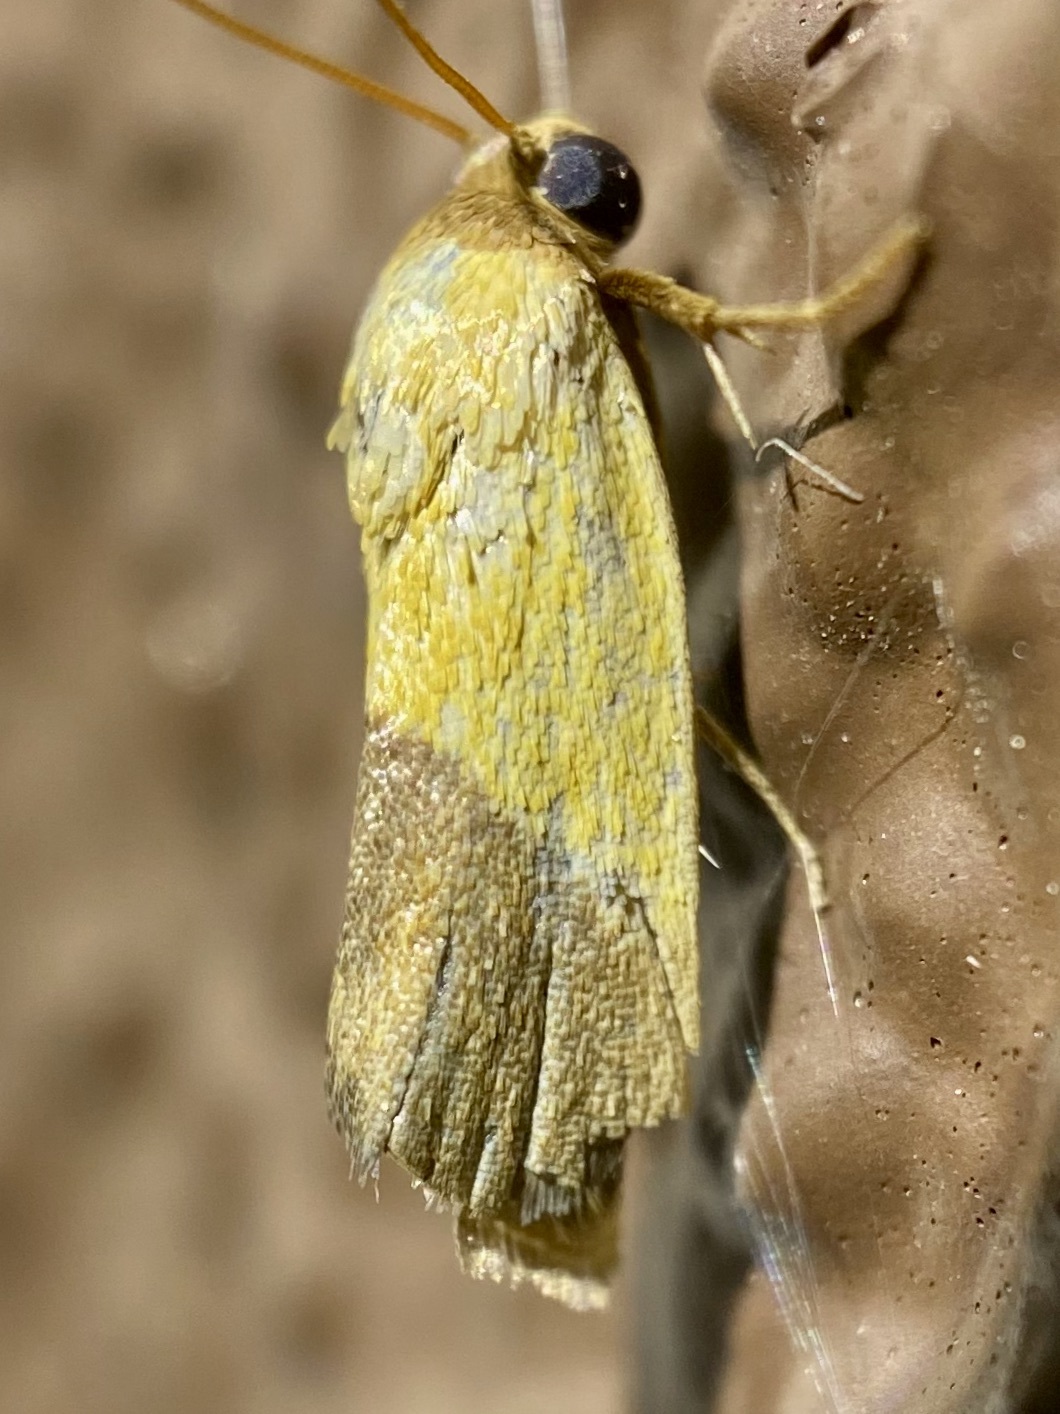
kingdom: Animalia
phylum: Arthropoda
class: Insecta
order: Lepidoptera
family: Noctuidae
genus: Acontia
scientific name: Acontia bicolorata
